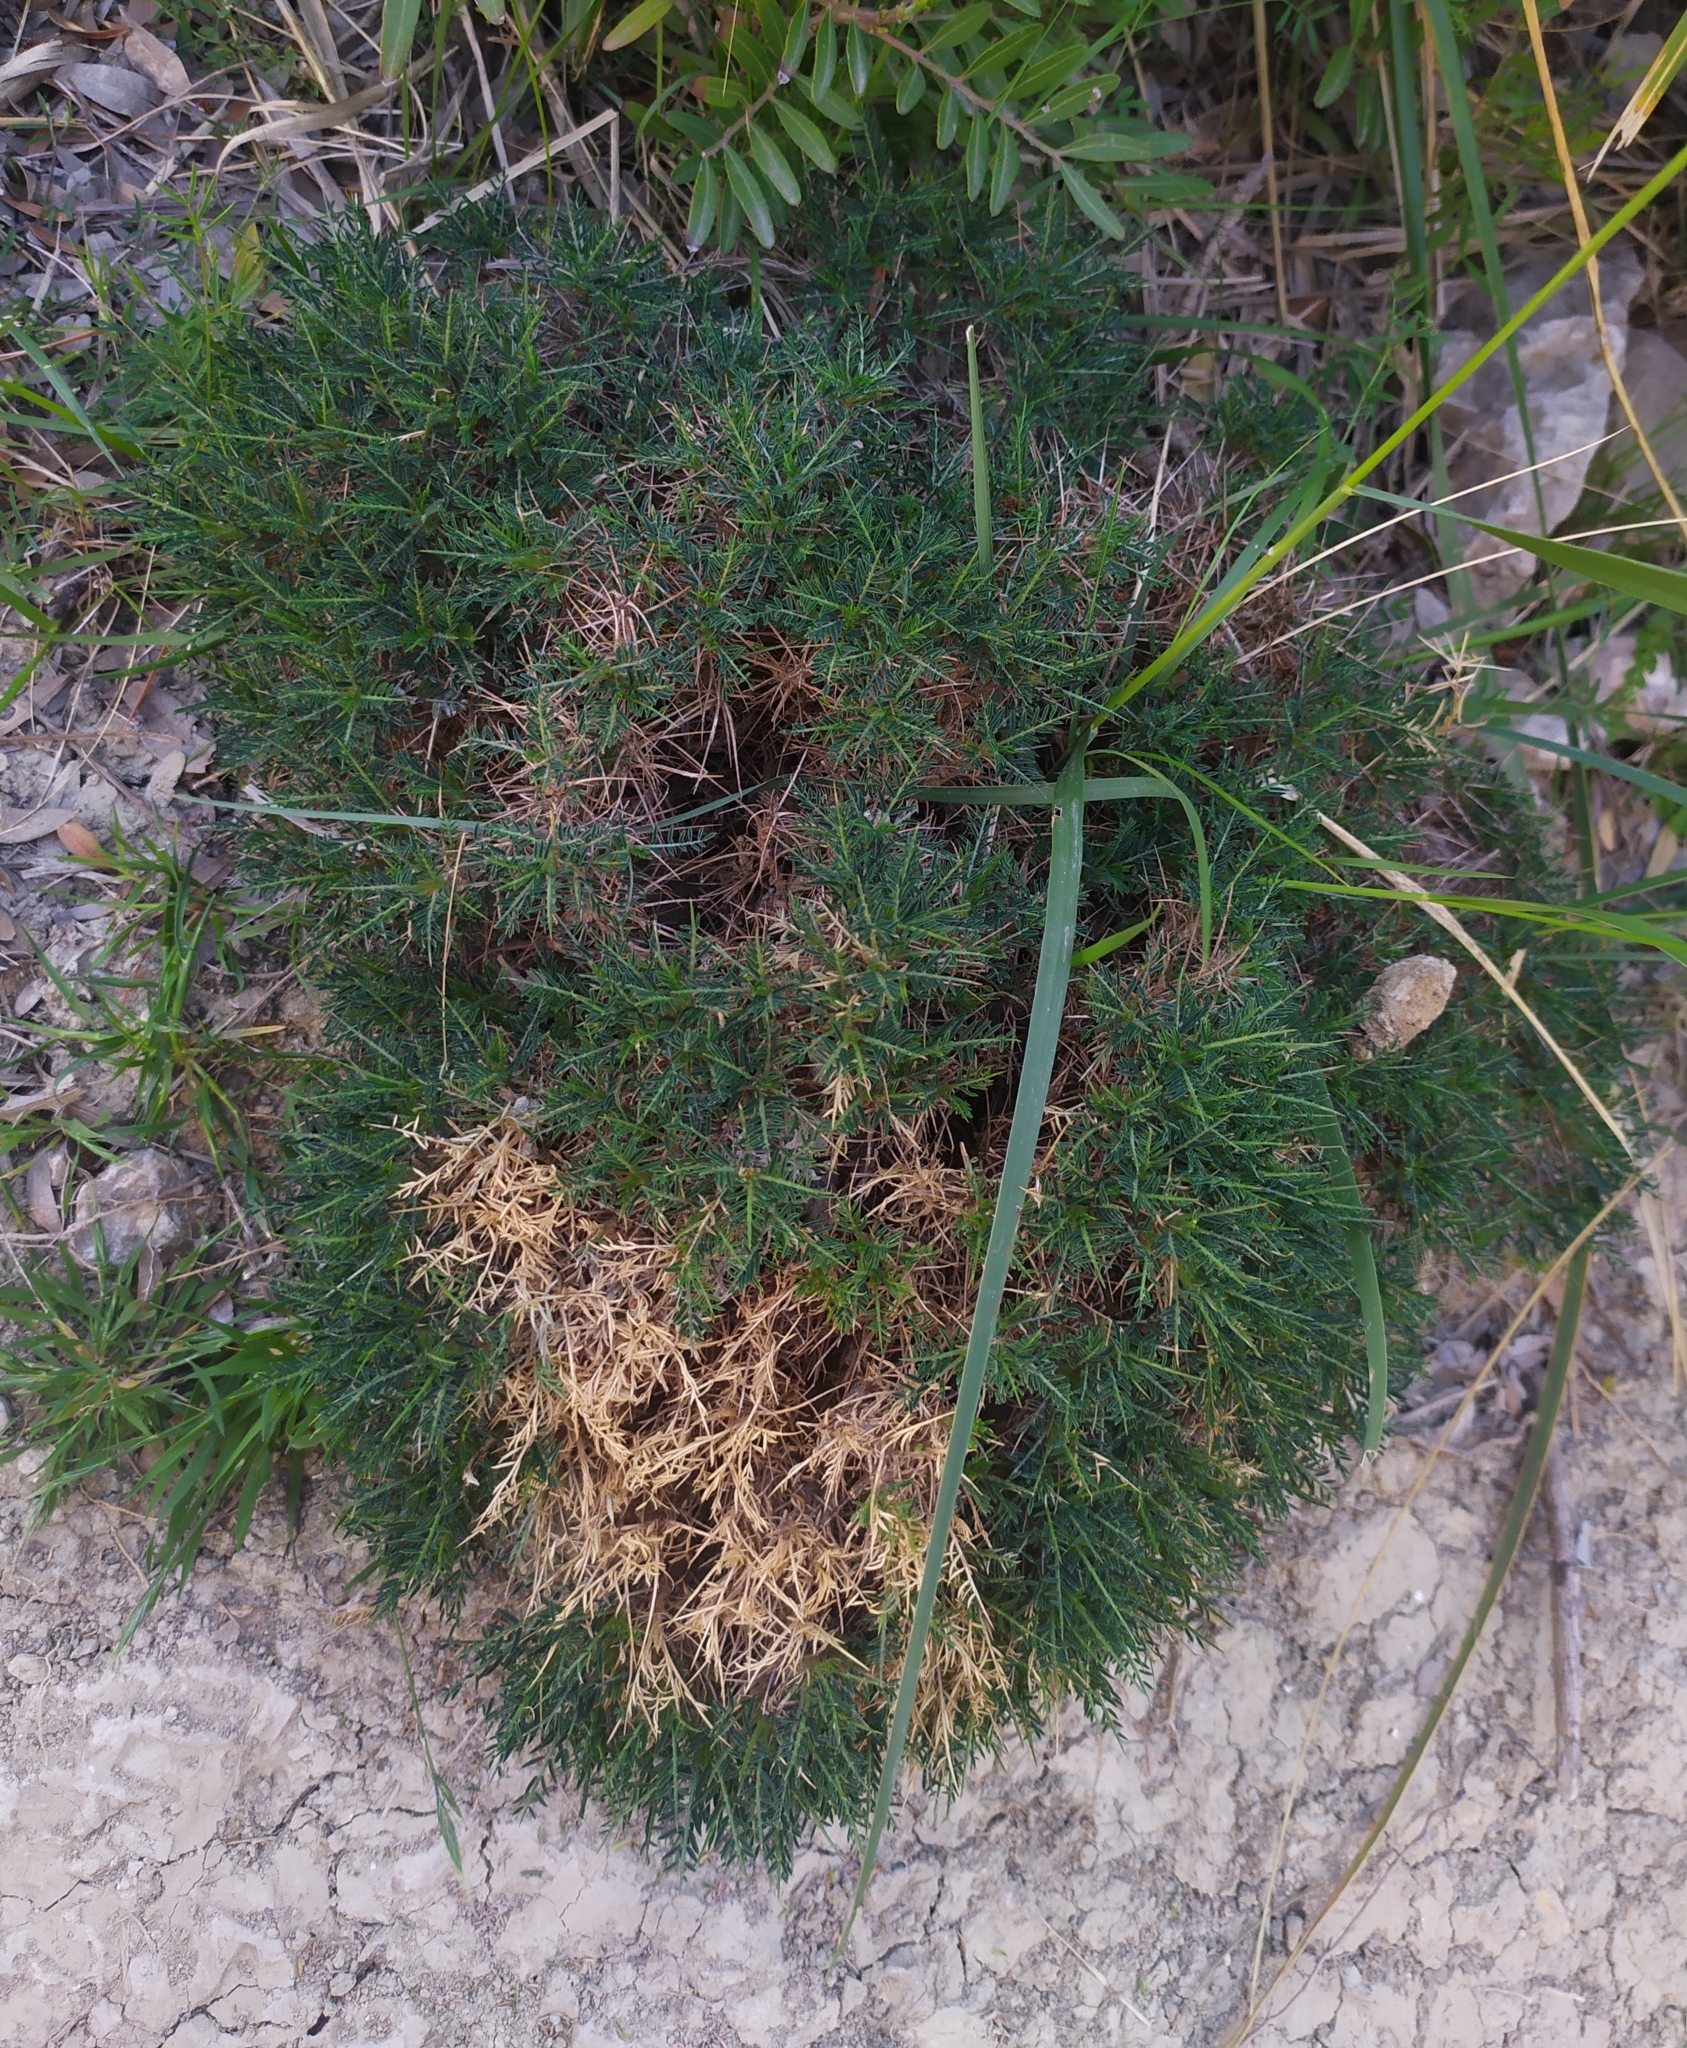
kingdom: Plantae
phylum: Tracheophyta
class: Magnoliopsida
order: Fabales
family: Fabaceae
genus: Astragalus
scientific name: Astragalus balearicus
